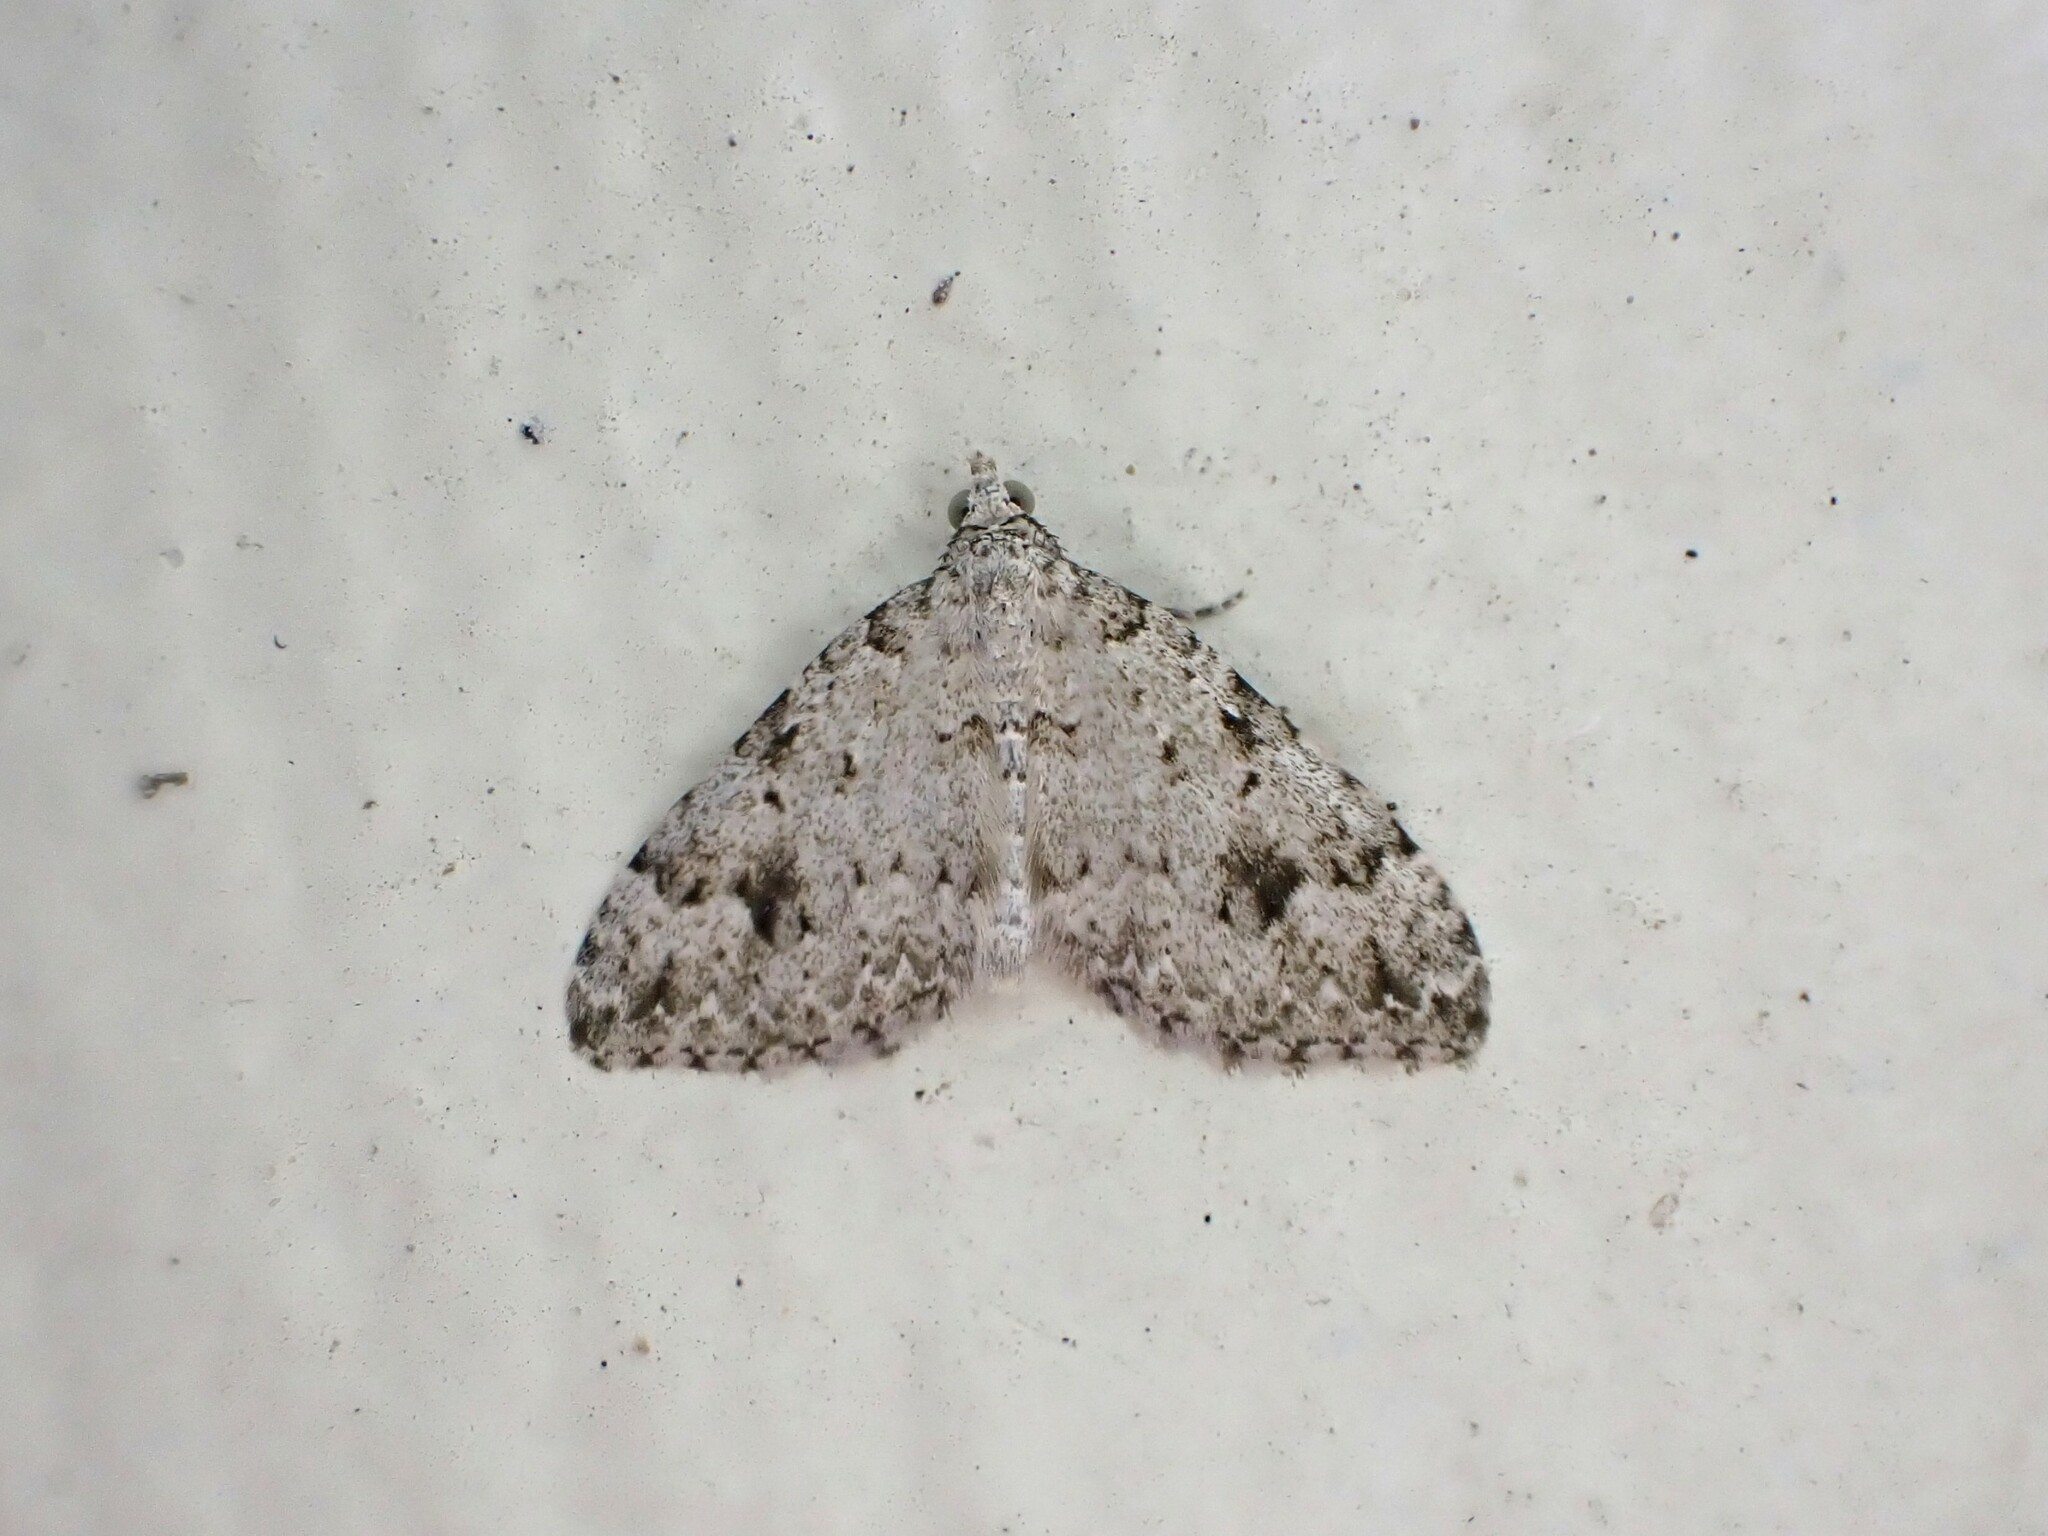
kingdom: Animalia
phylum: Arthropoda
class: Insecta
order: Lepidoptera
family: Geometridae
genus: Helastia
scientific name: Helastia cinerearia
